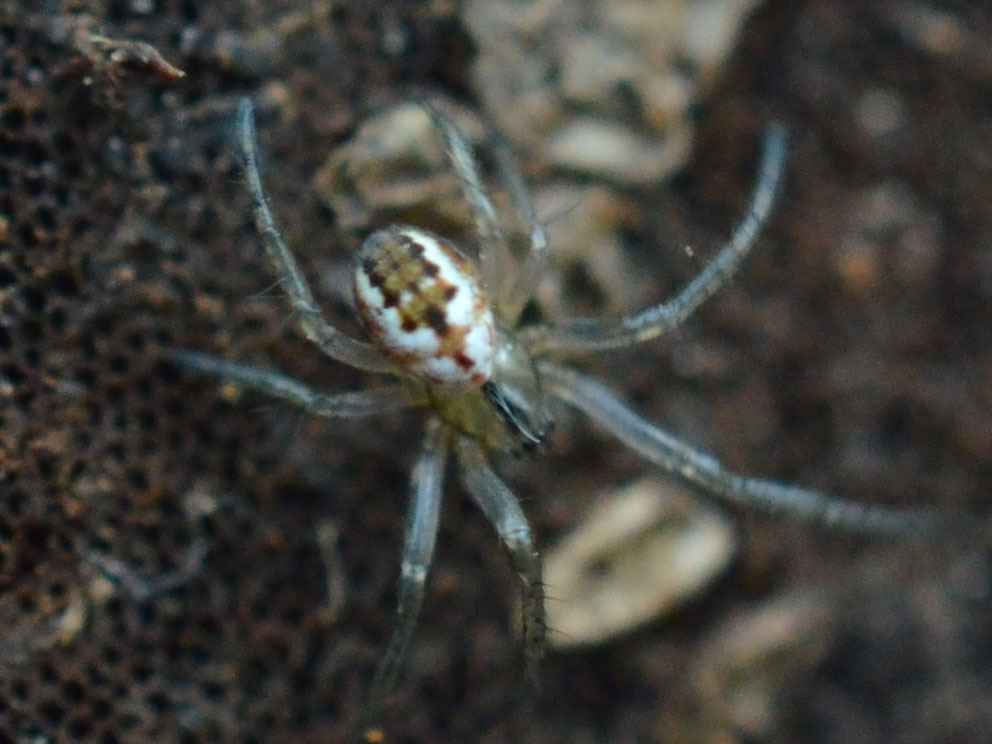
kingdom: Animalia
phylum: Arthropoda
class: Arachnida
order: Araneae
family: Araneidae
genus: Mangora
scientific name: Mangora acalypha
